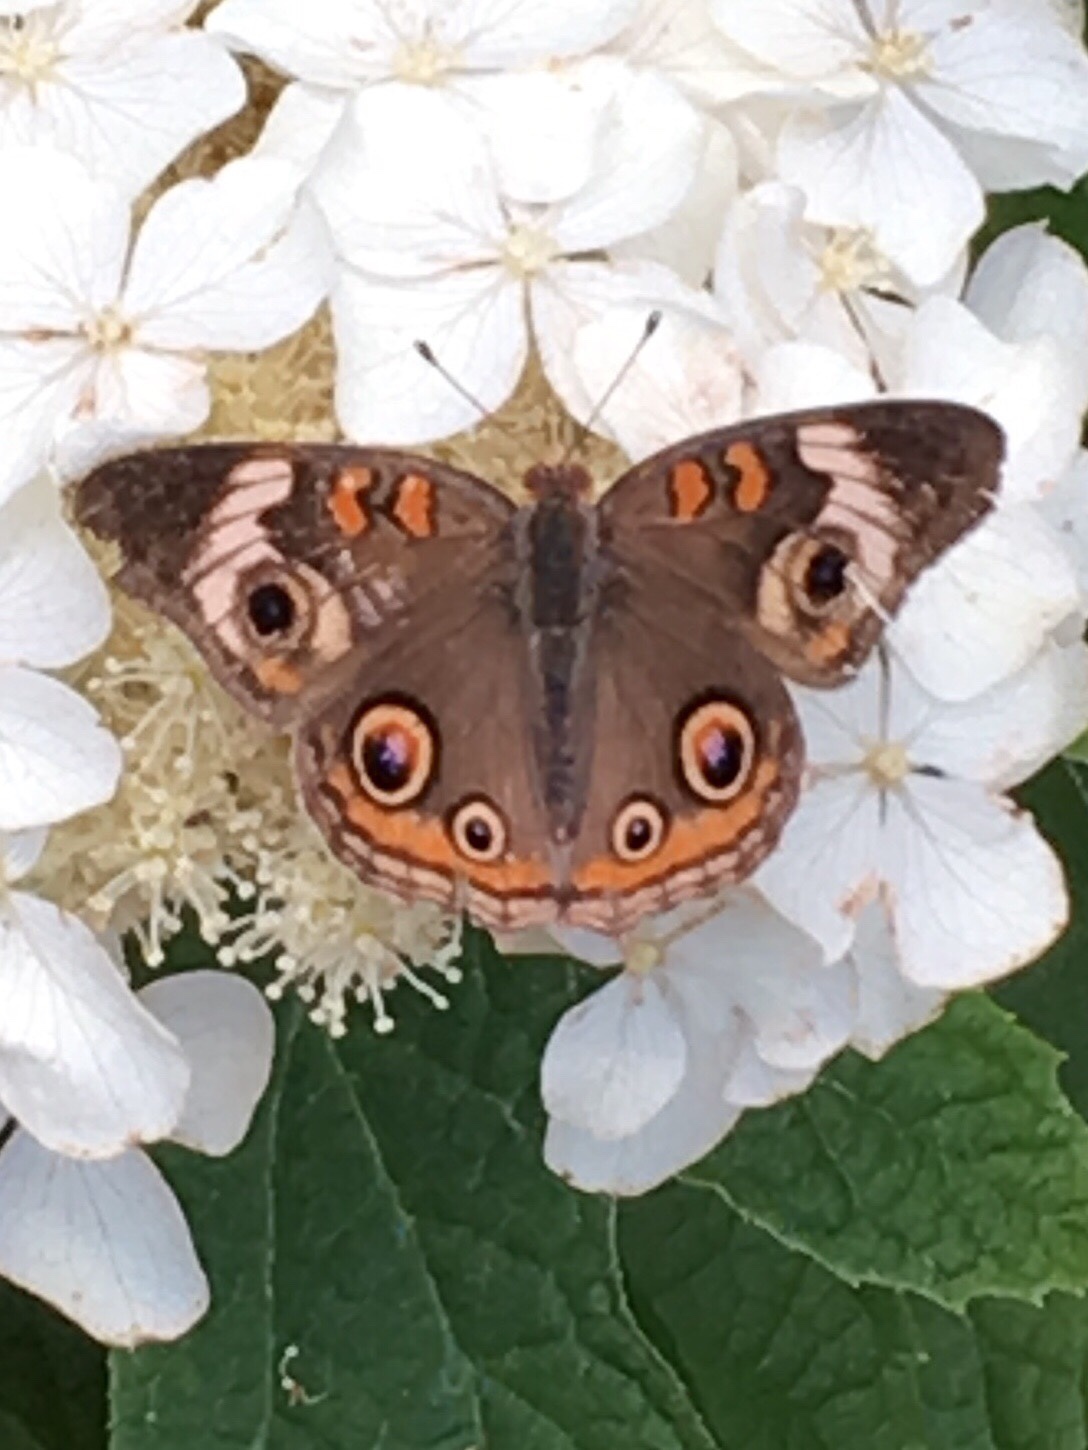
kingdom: Animalia
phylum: Arthropoda
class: Insecta
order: Lepidoptera
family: Nymphalidae
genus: Junonia
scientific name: Junonia coenia
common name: Common buckeye
